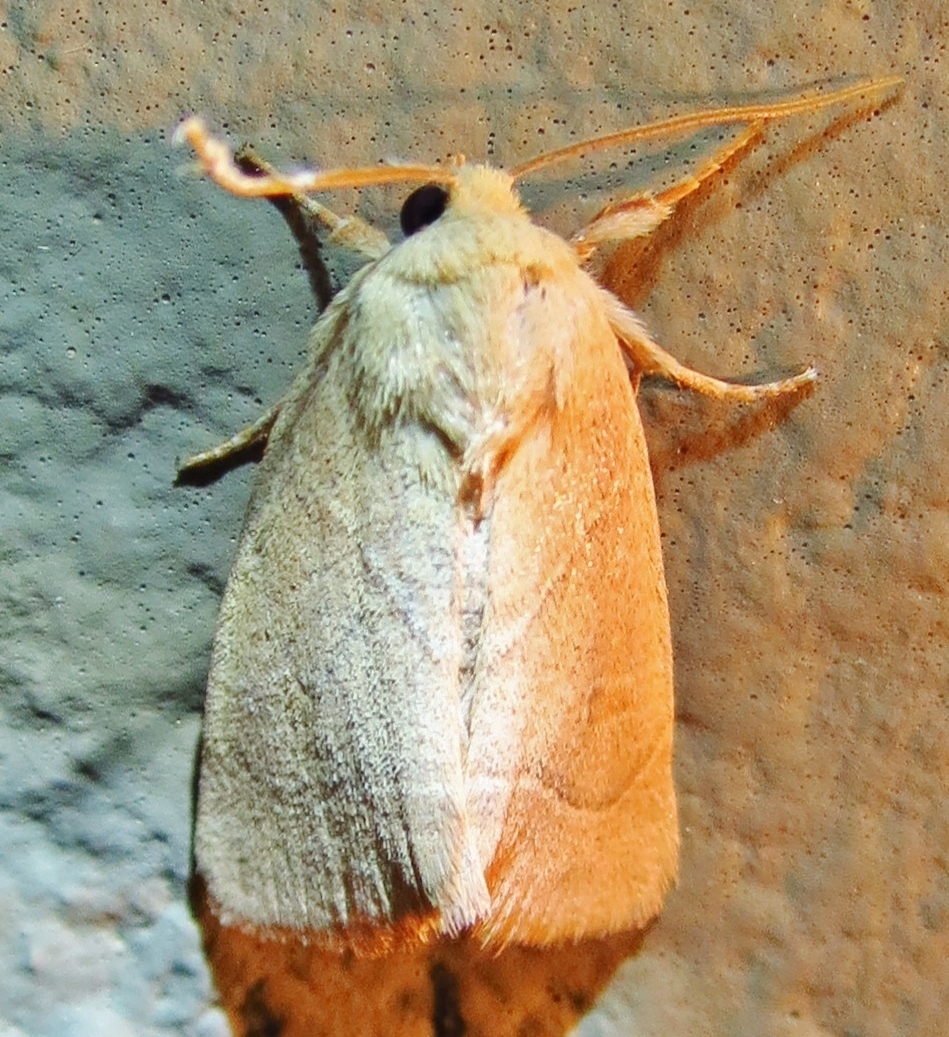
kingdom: Animalia
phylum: Arthropoda
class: Insecta
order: Lepidoptera
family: Noctuidae
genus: Cosmia
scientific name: Cosmia calami
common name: American dun-bar moth
